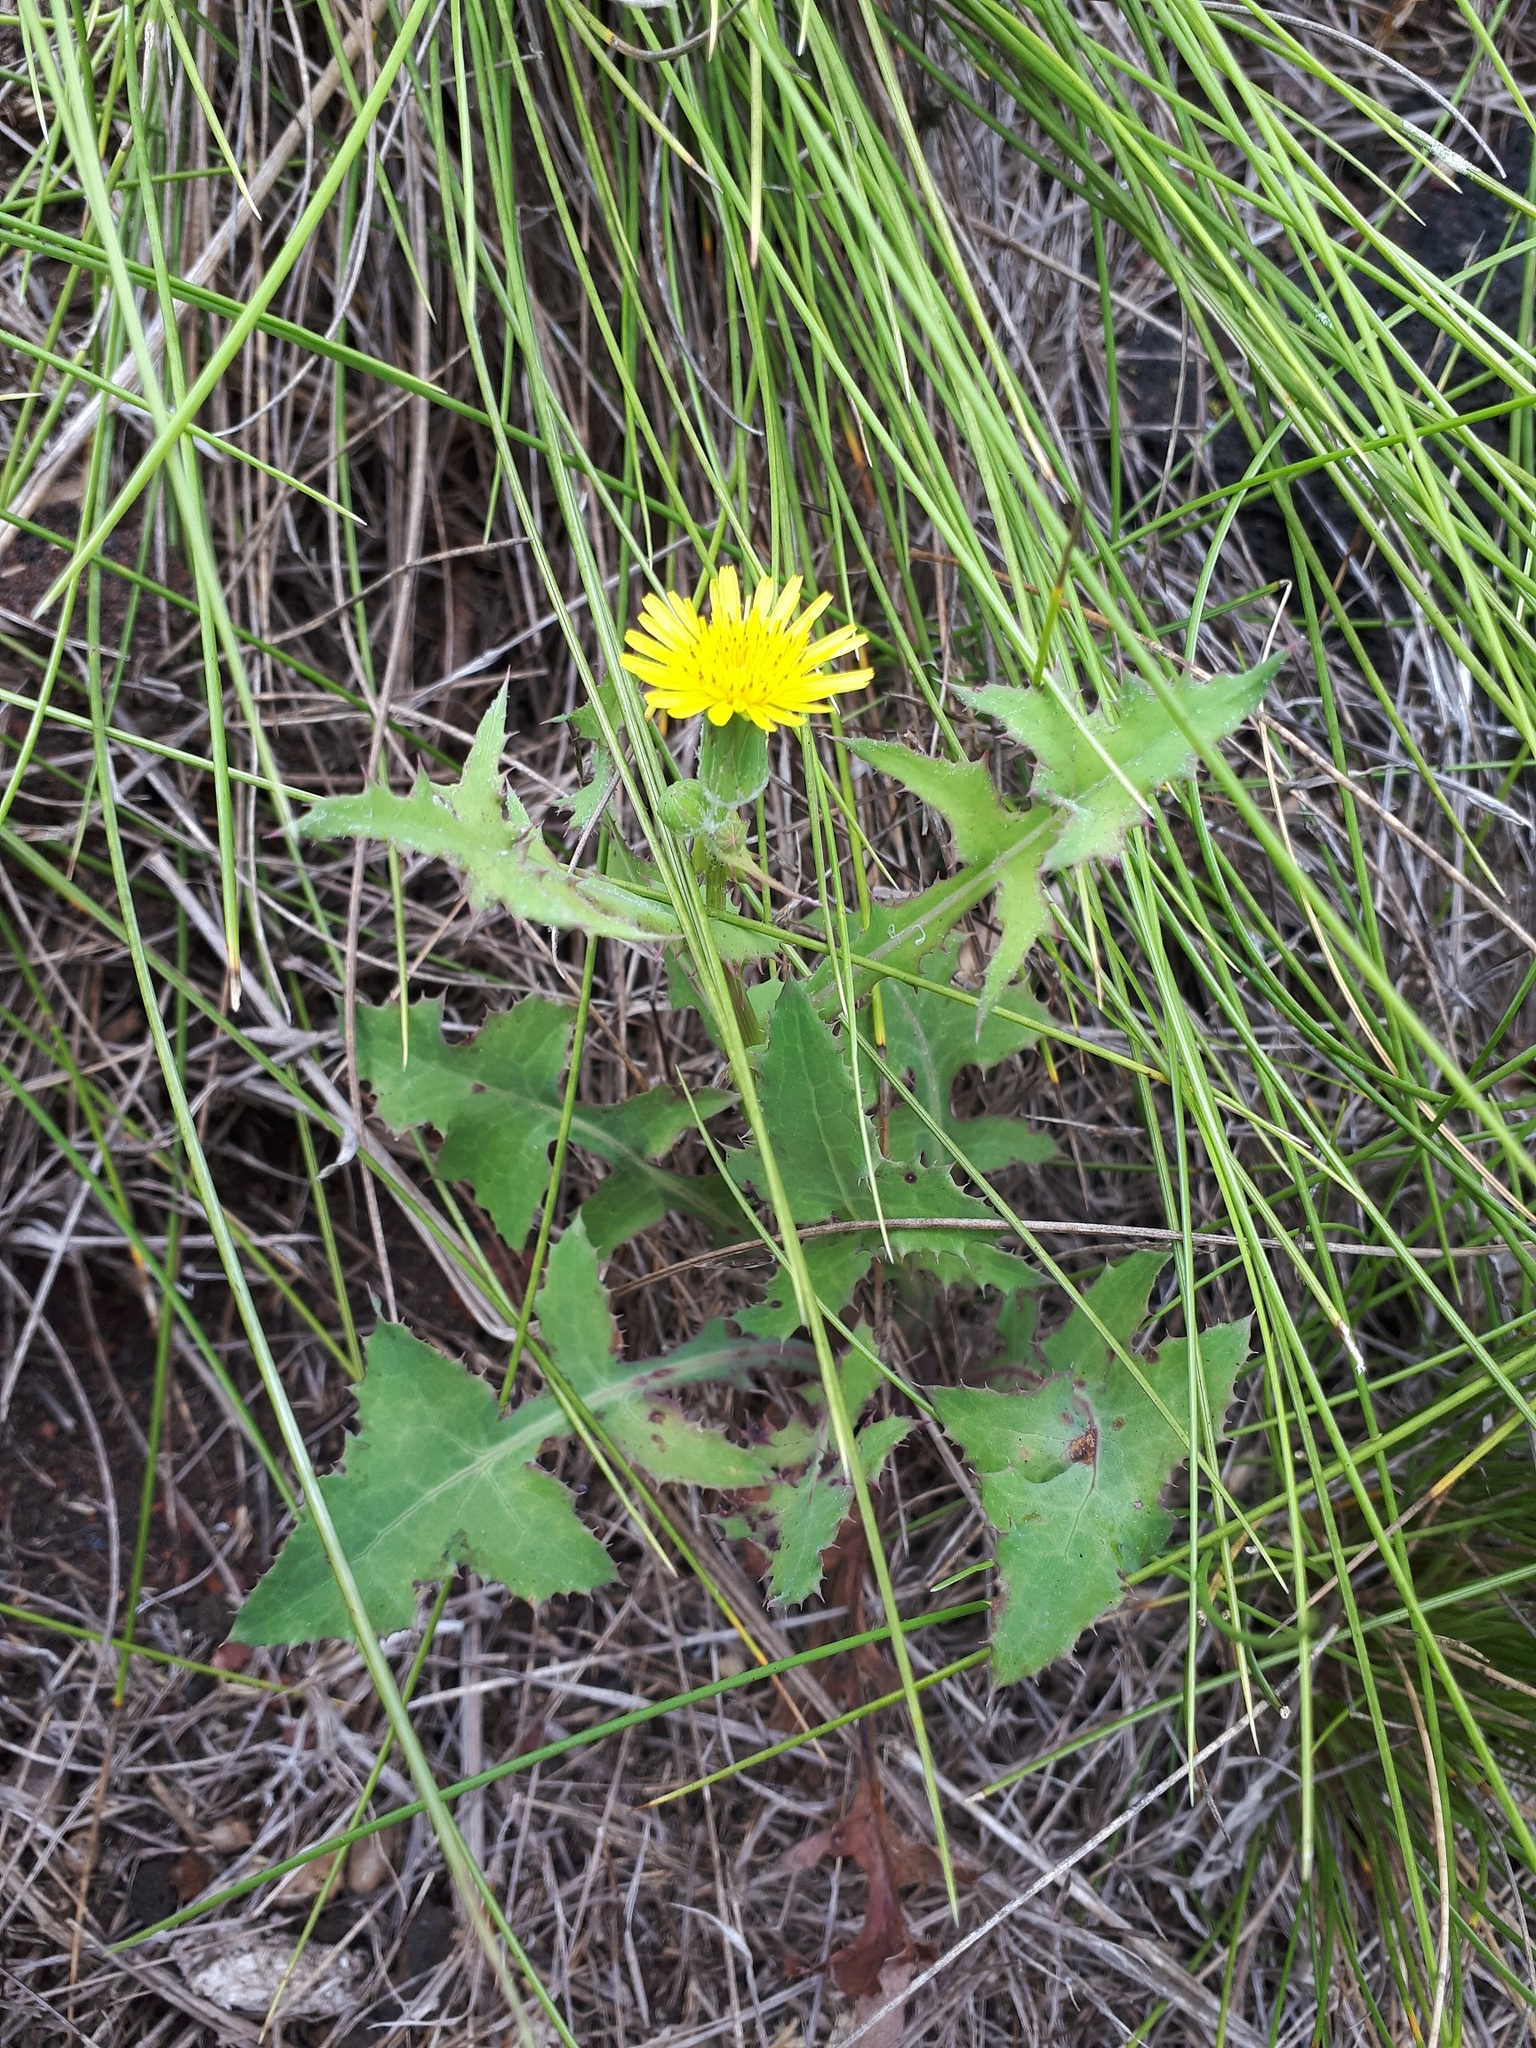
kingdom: Plantae
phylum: Tracheophyta
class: Magnoliopsida
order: Asterales
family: Asteraceae
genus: Sonchus
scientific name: Sonchus oleraceus
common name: Common sowthistle
